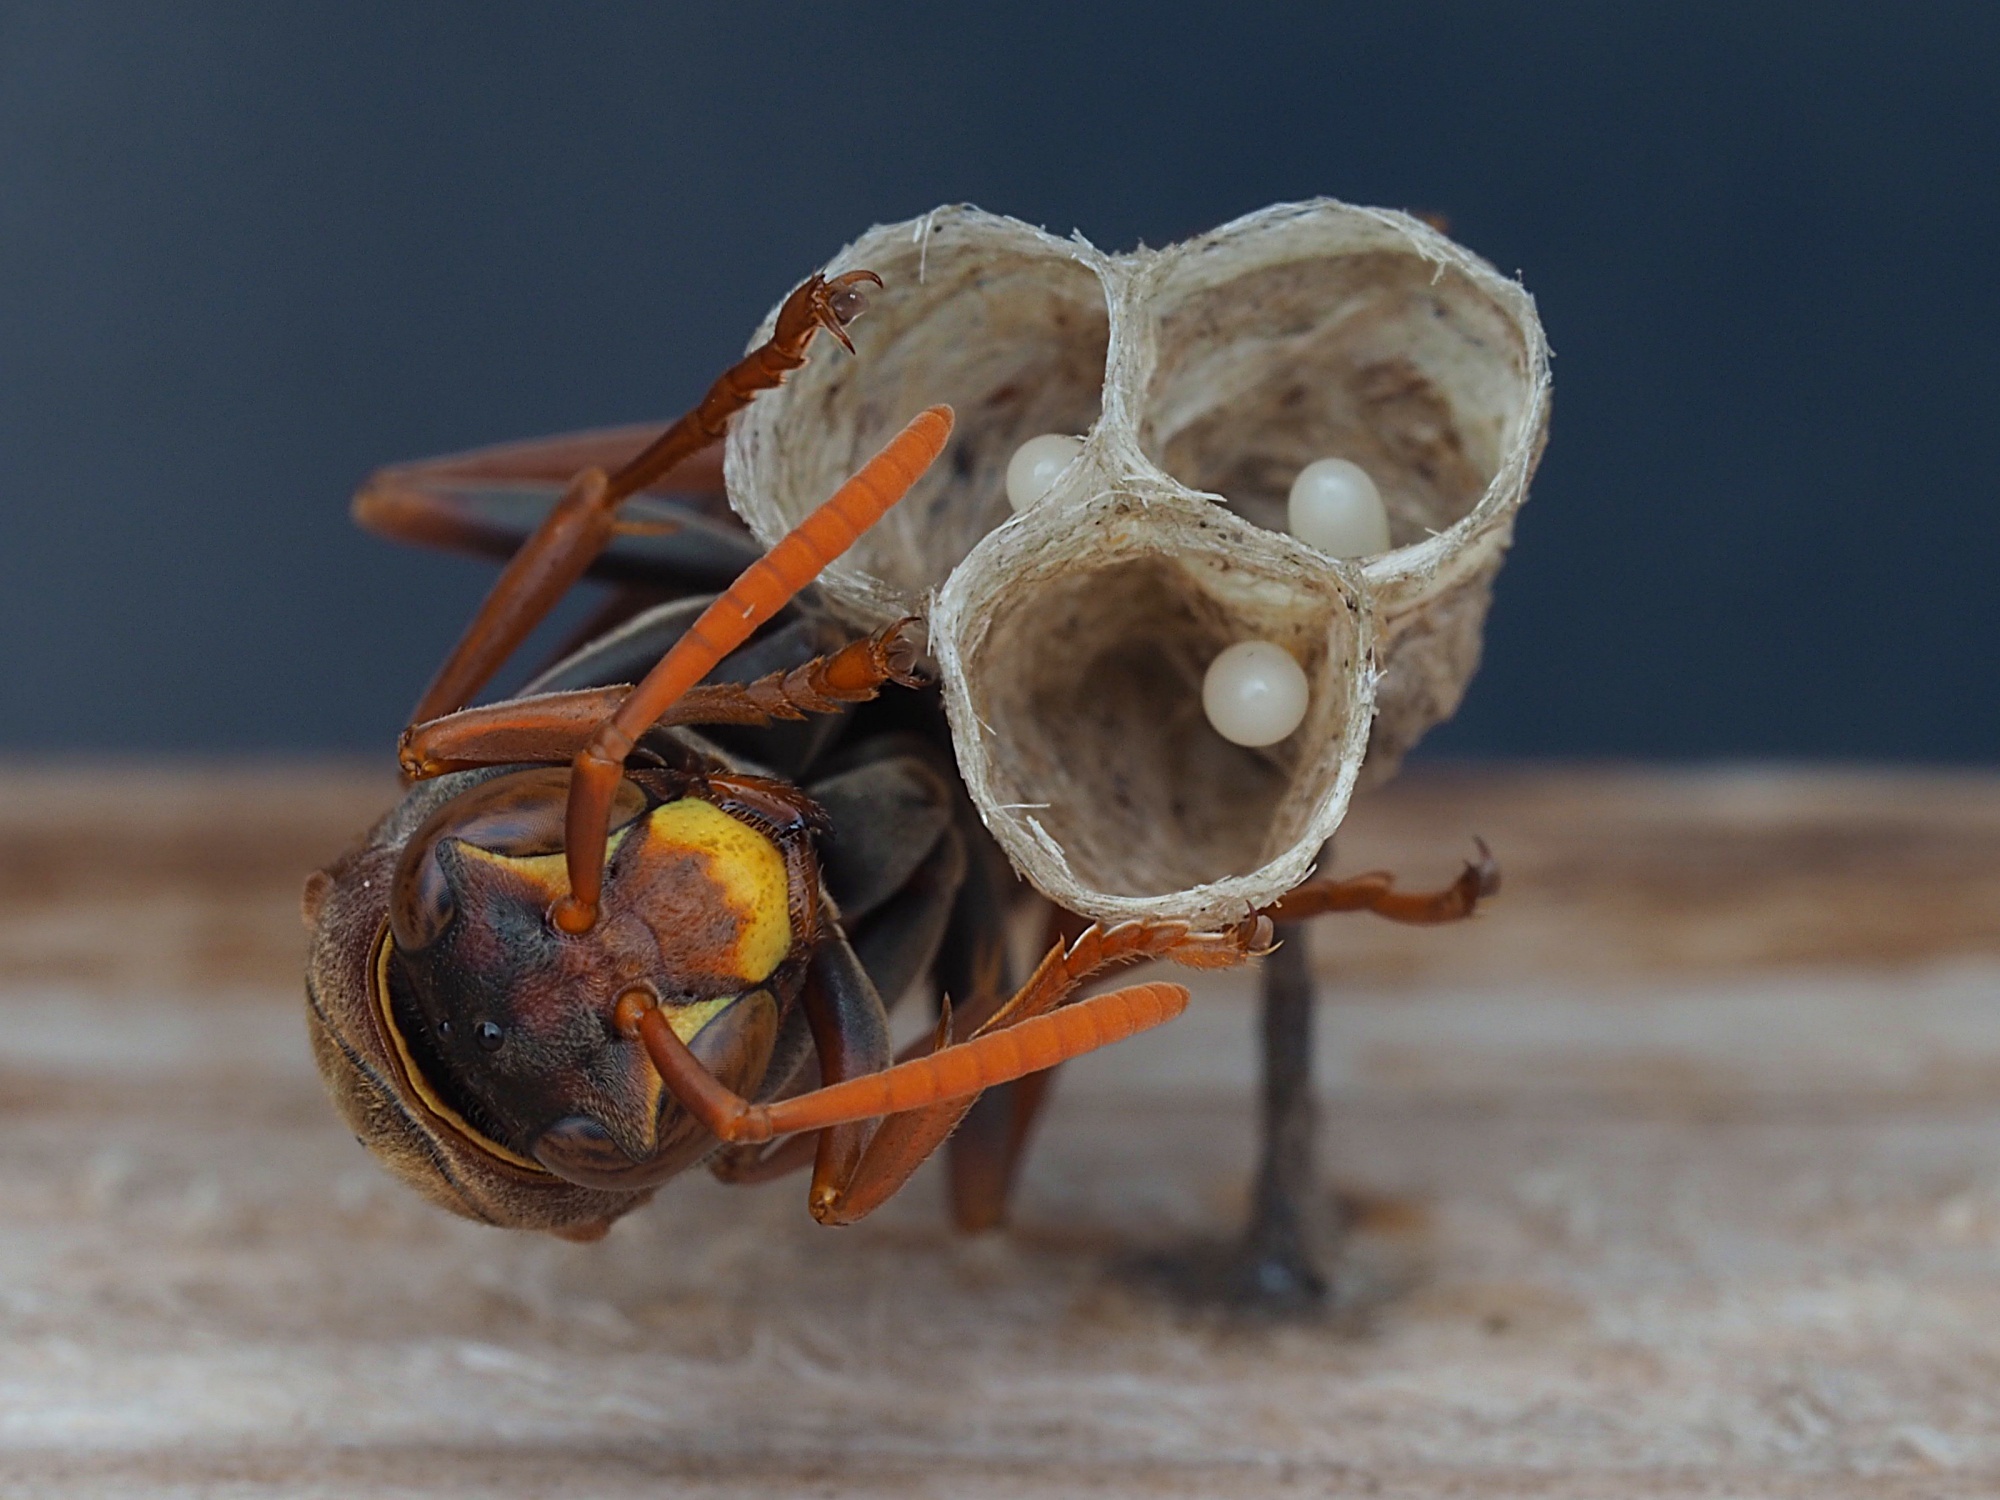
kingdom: Animalia
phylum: Arthropoda
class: Insecta
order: Hymenoptera
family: Eumenidae
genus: Polistes
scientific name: Polistes humilis
